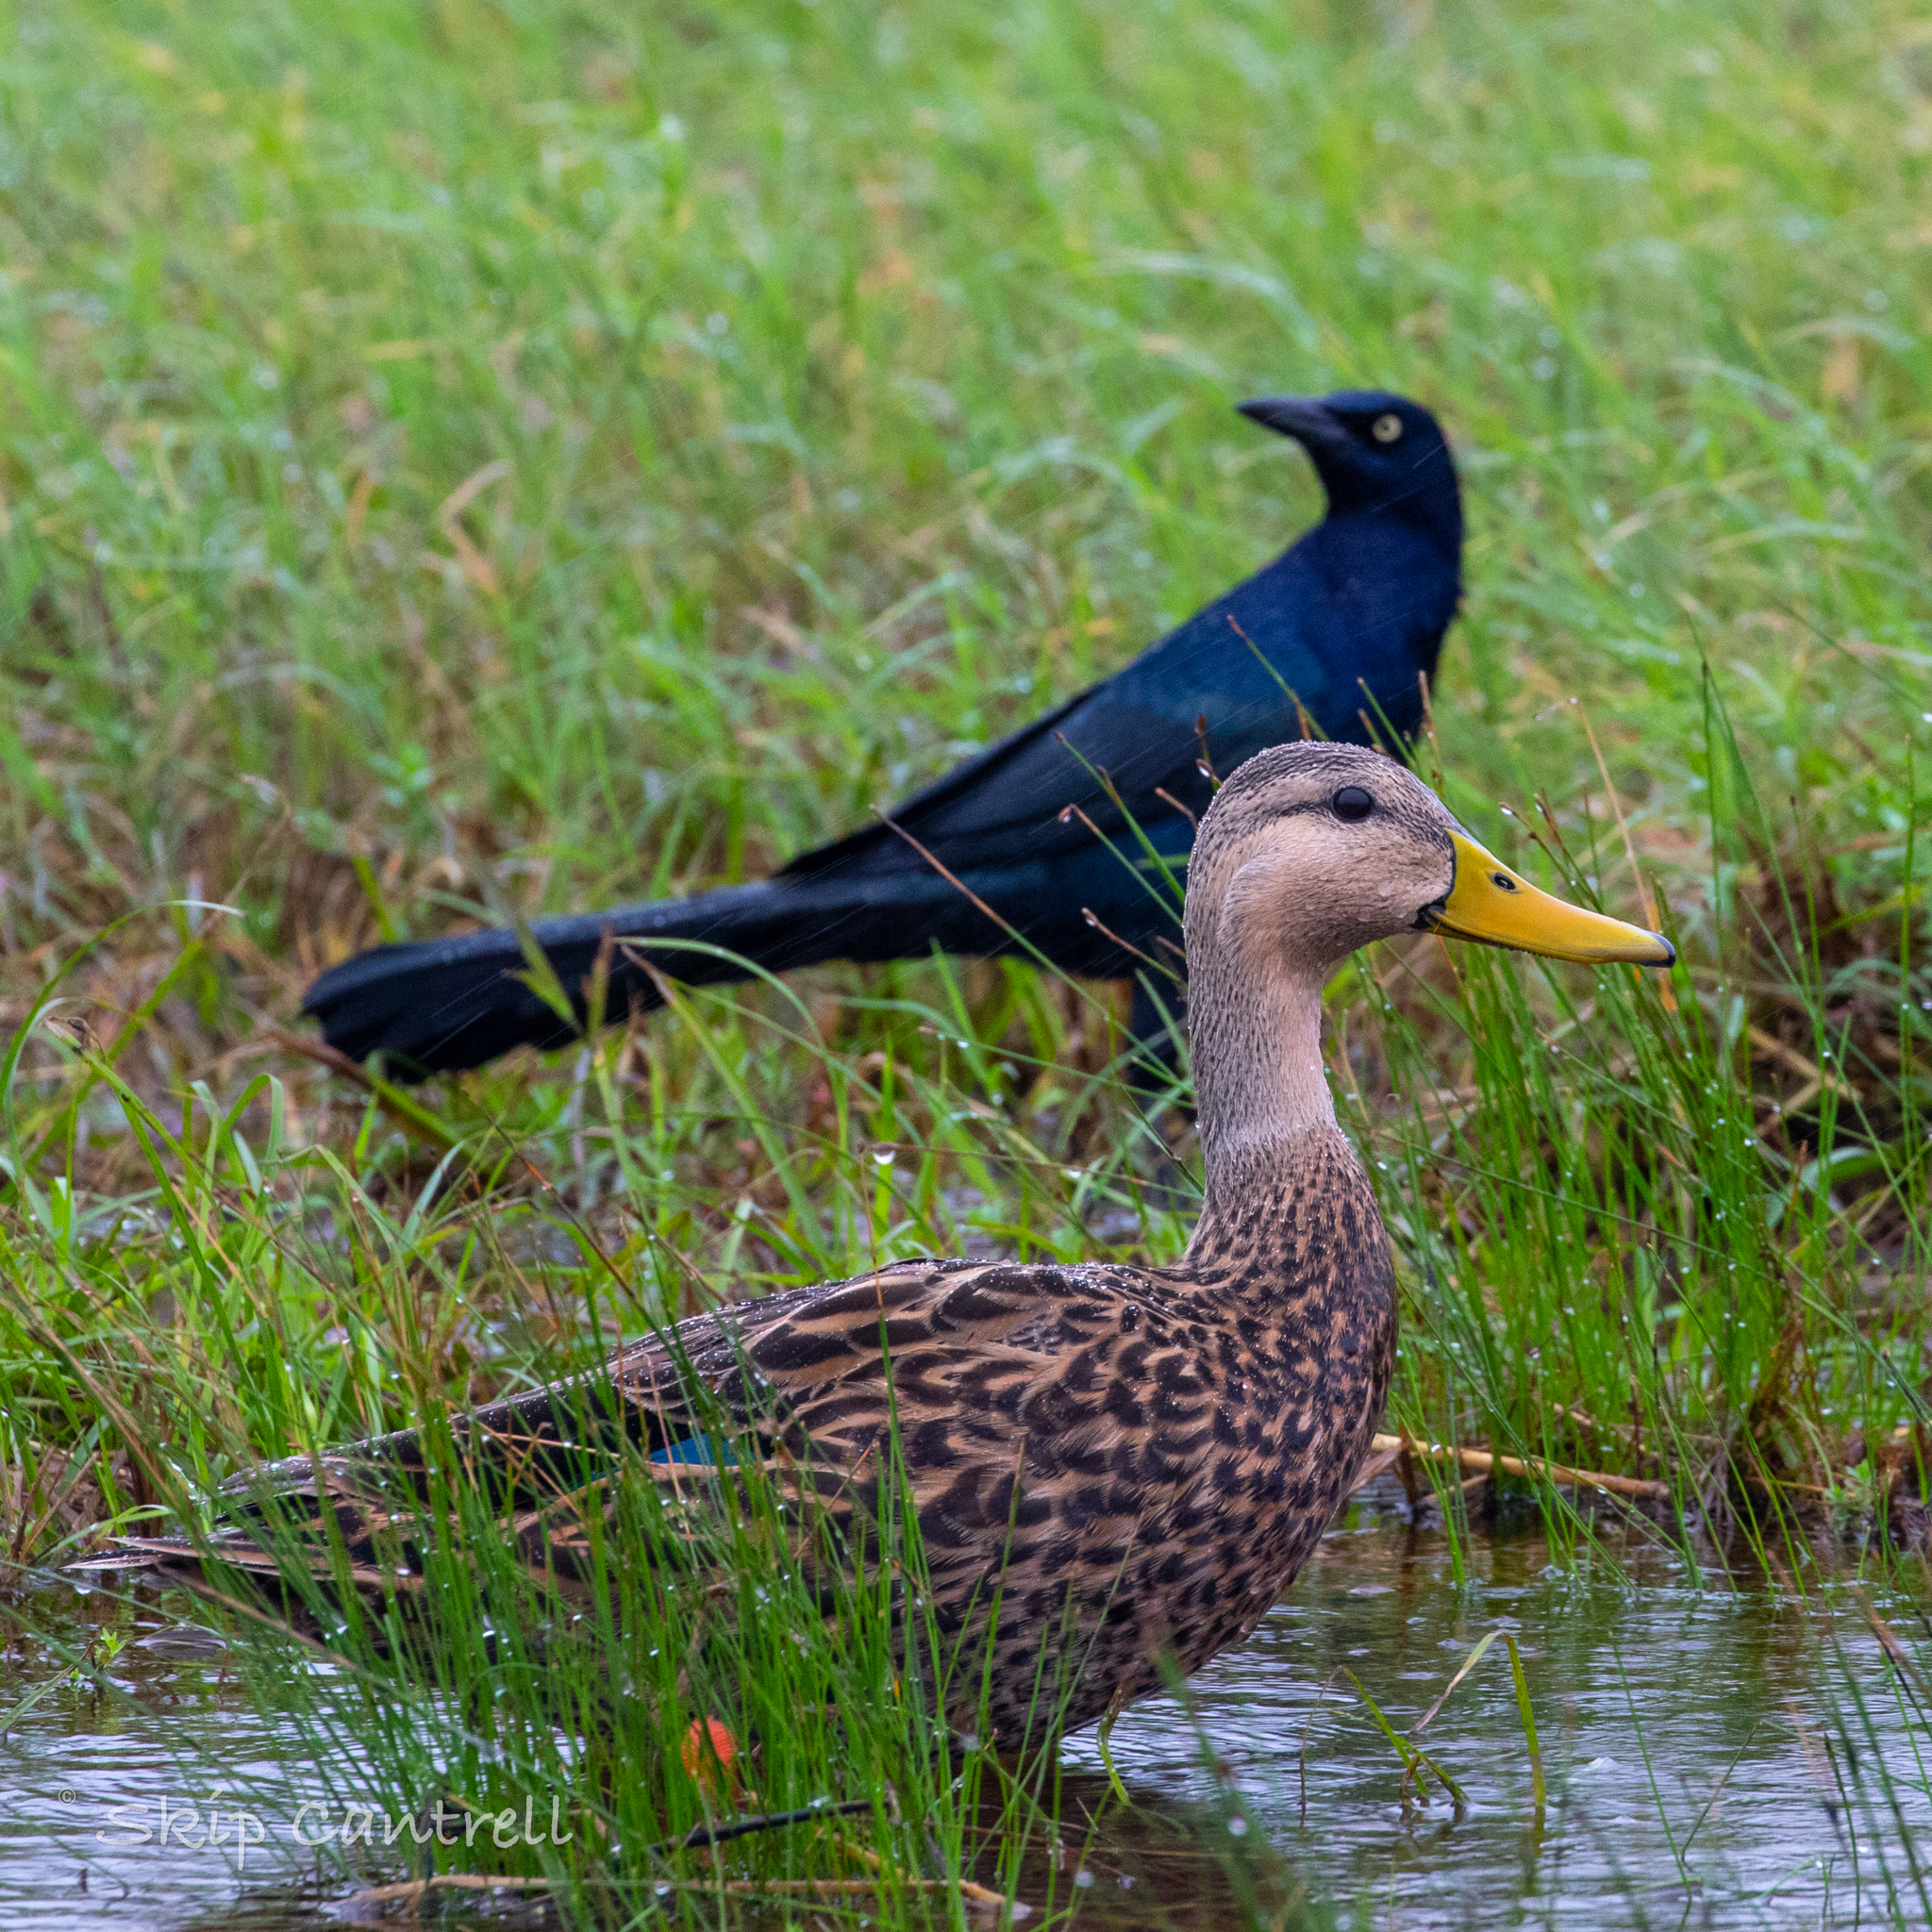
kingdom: Animalia
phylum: Chordata
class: Aves
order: Anseriformes
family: Anatidae
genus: Anas
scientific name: Anas fulvigula
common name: Mottled duck
